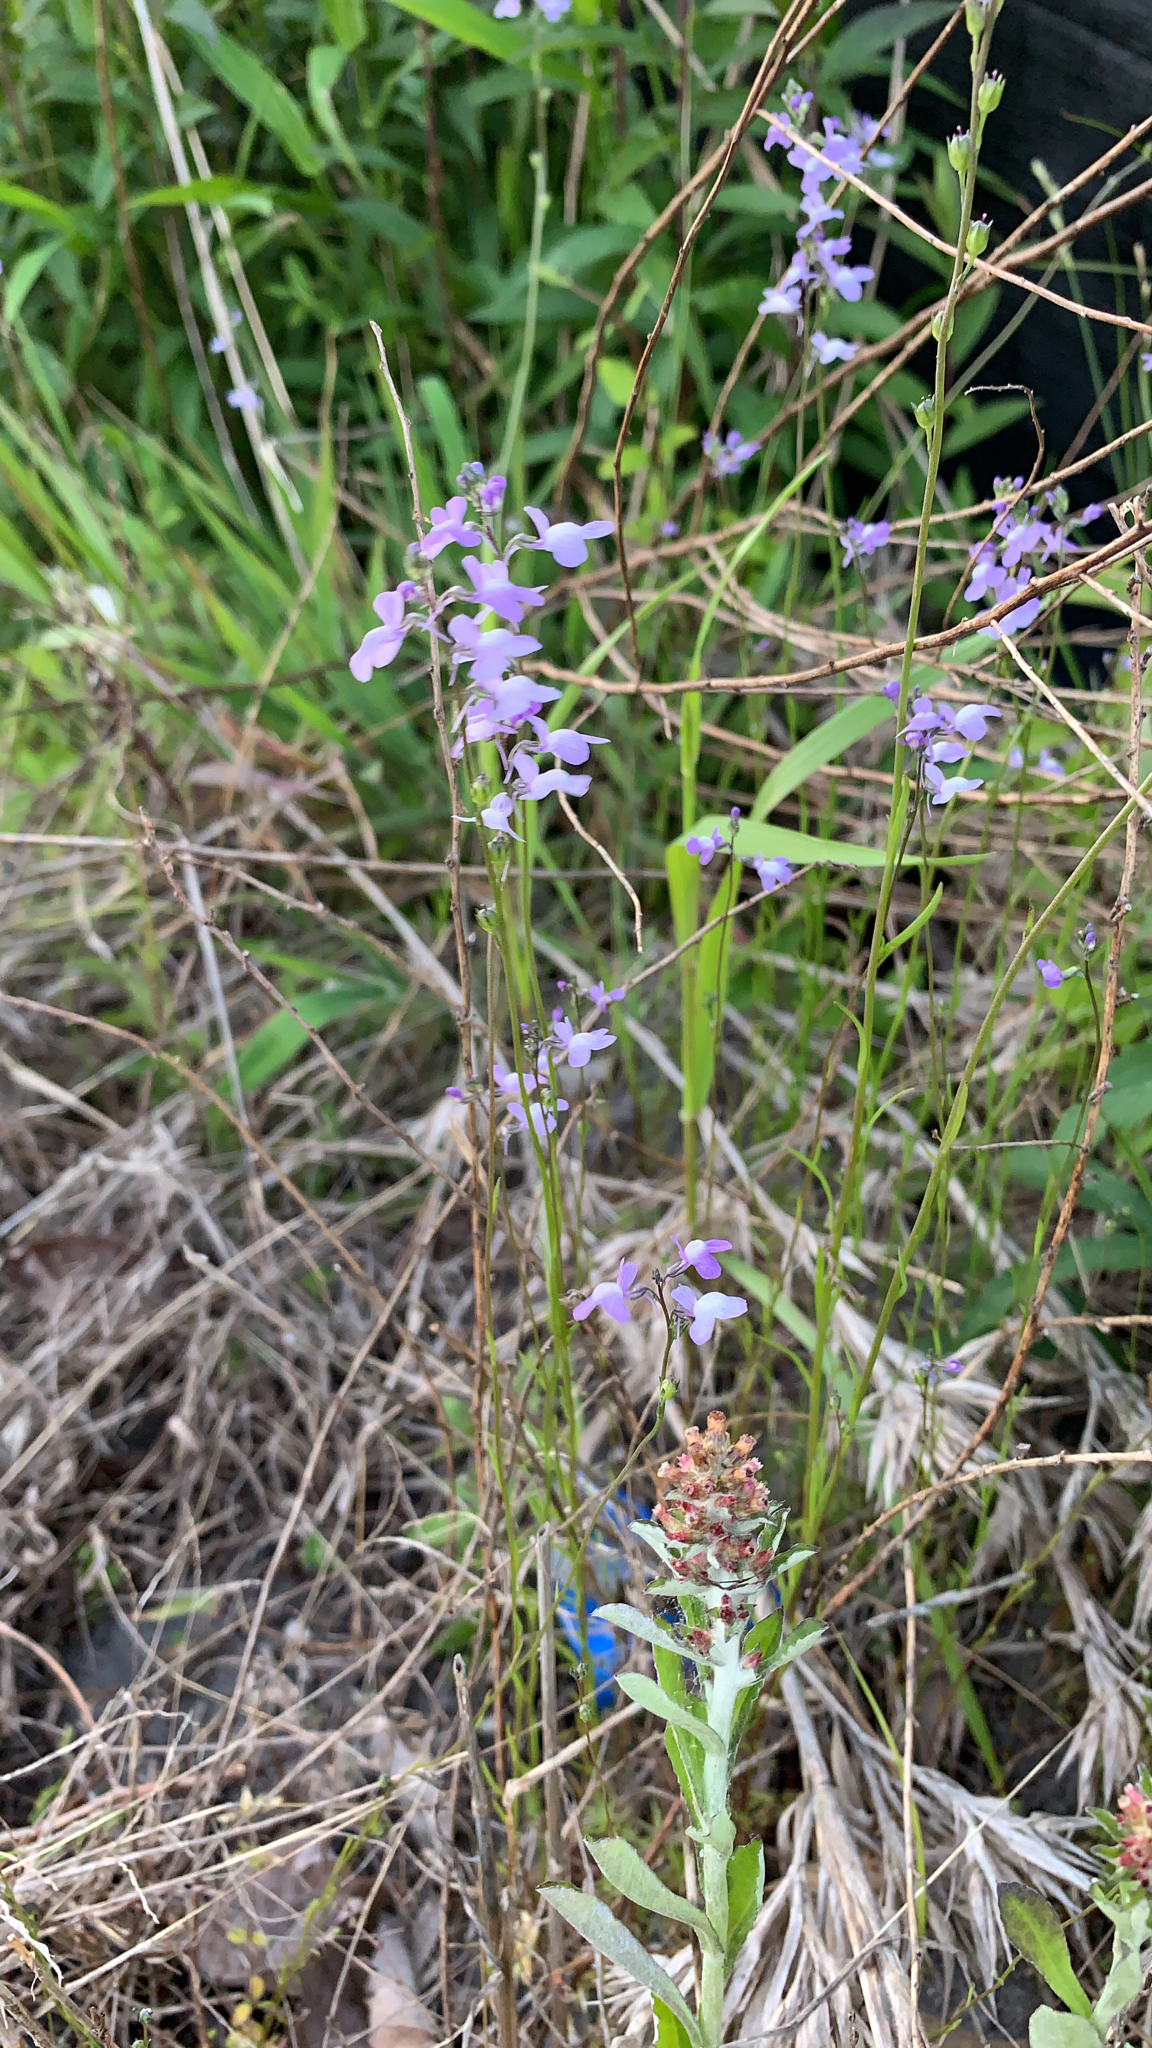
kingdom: Plantae
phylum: Tracheophyta
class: Magnoliopsida
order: Lamiales
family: Plantaginaceae
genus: Nuttallanthus
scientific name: Nuttallanthus canadensis
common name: Blue toadflax
